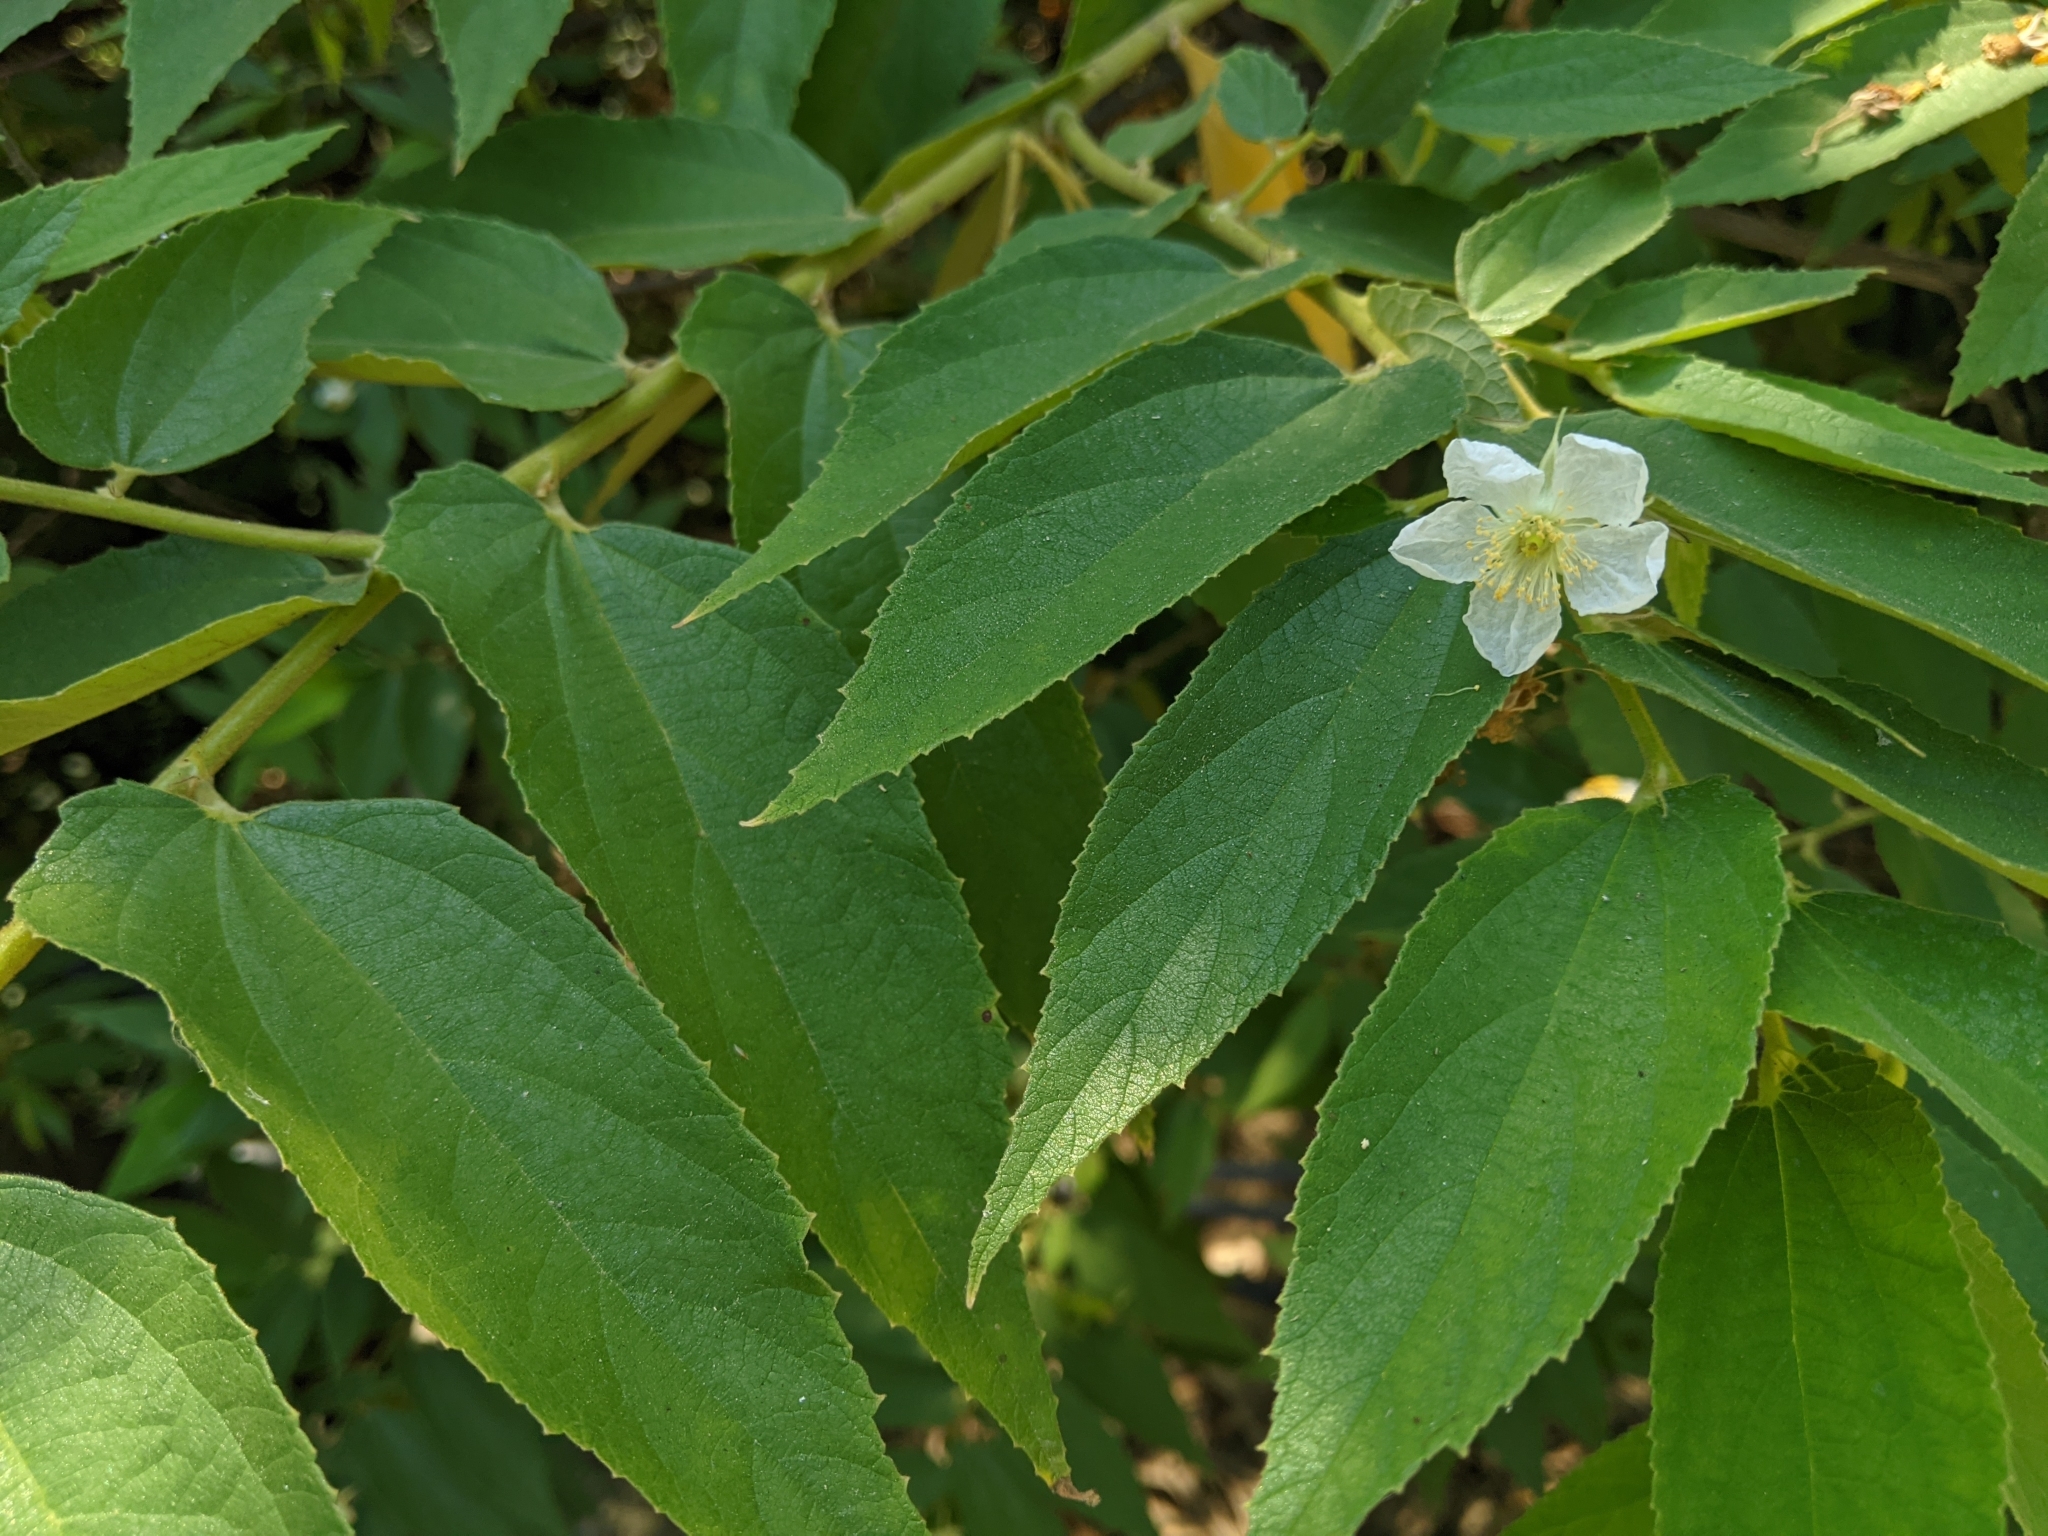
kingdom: Plantae
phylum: Tracheophyta
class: Magnoliopsida
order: Malvales
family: Muntingiaceae
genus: Muntingia
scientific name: Muntingia calabura
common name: Strawberrytree
